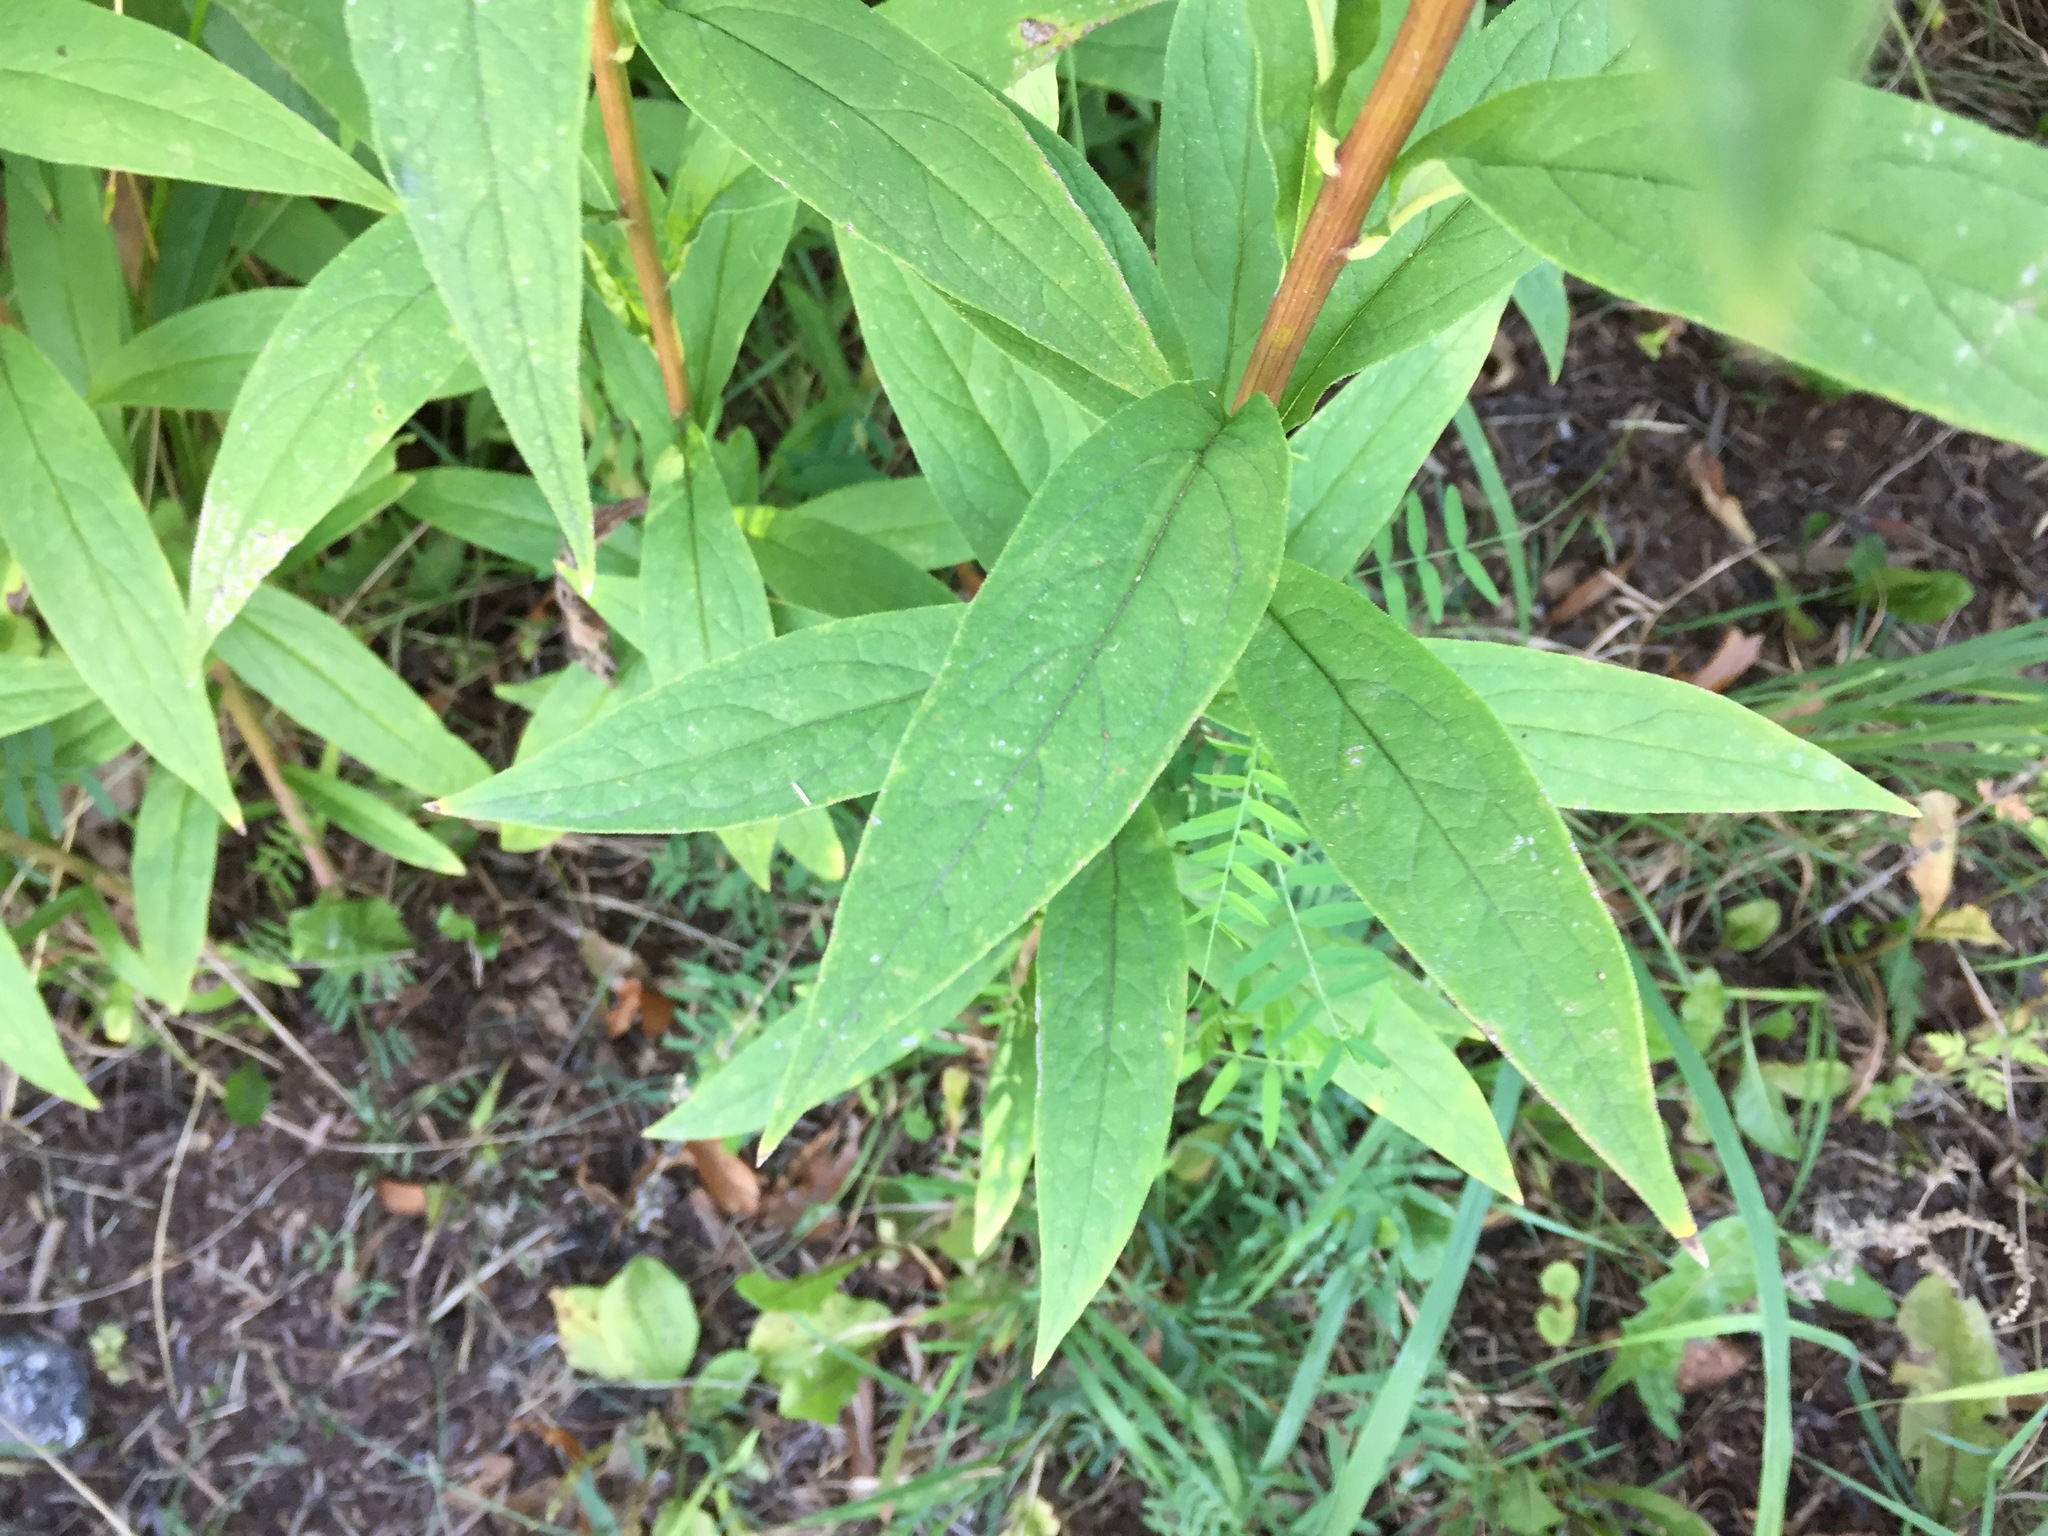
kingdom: Plantae
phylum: Tracheophyta
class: Magnoliopsida
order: Asterales
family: Asteraceae
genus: Doellingeria
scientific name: Doellingeria umbellata
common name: Flat-top white aster
